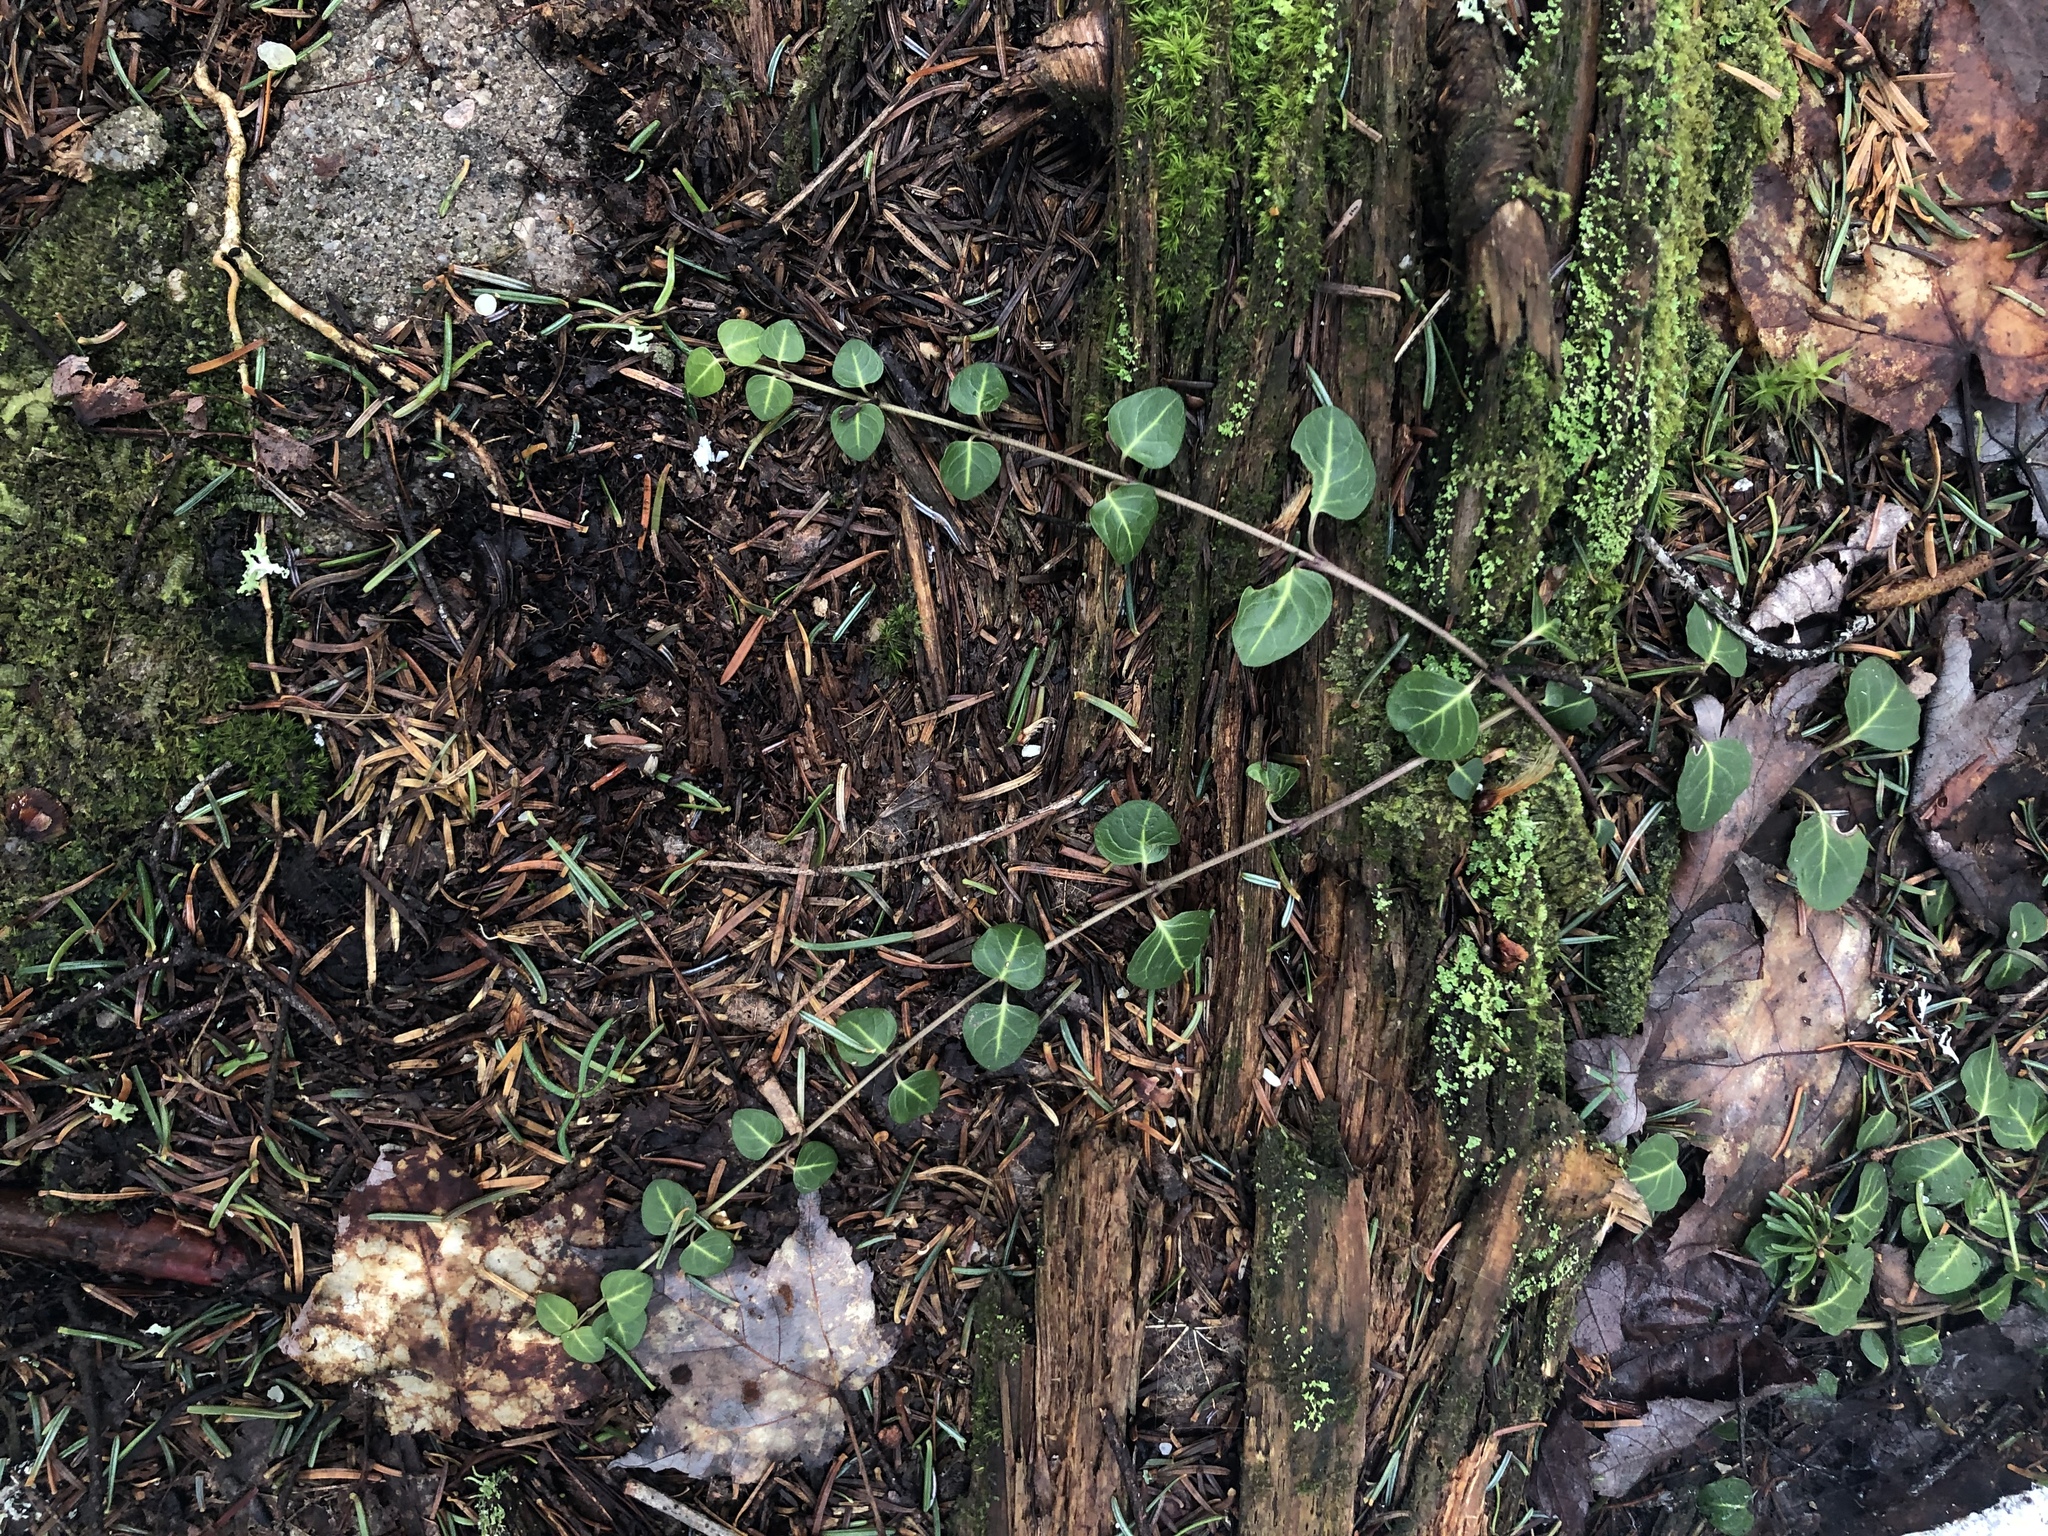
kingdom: Plantae
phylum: Tracheophyta
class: Magnoliopsida
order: Gentianales
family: Rubiaceae
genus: Mitchella
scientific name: Mitchella repens
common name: Partridge-berry
